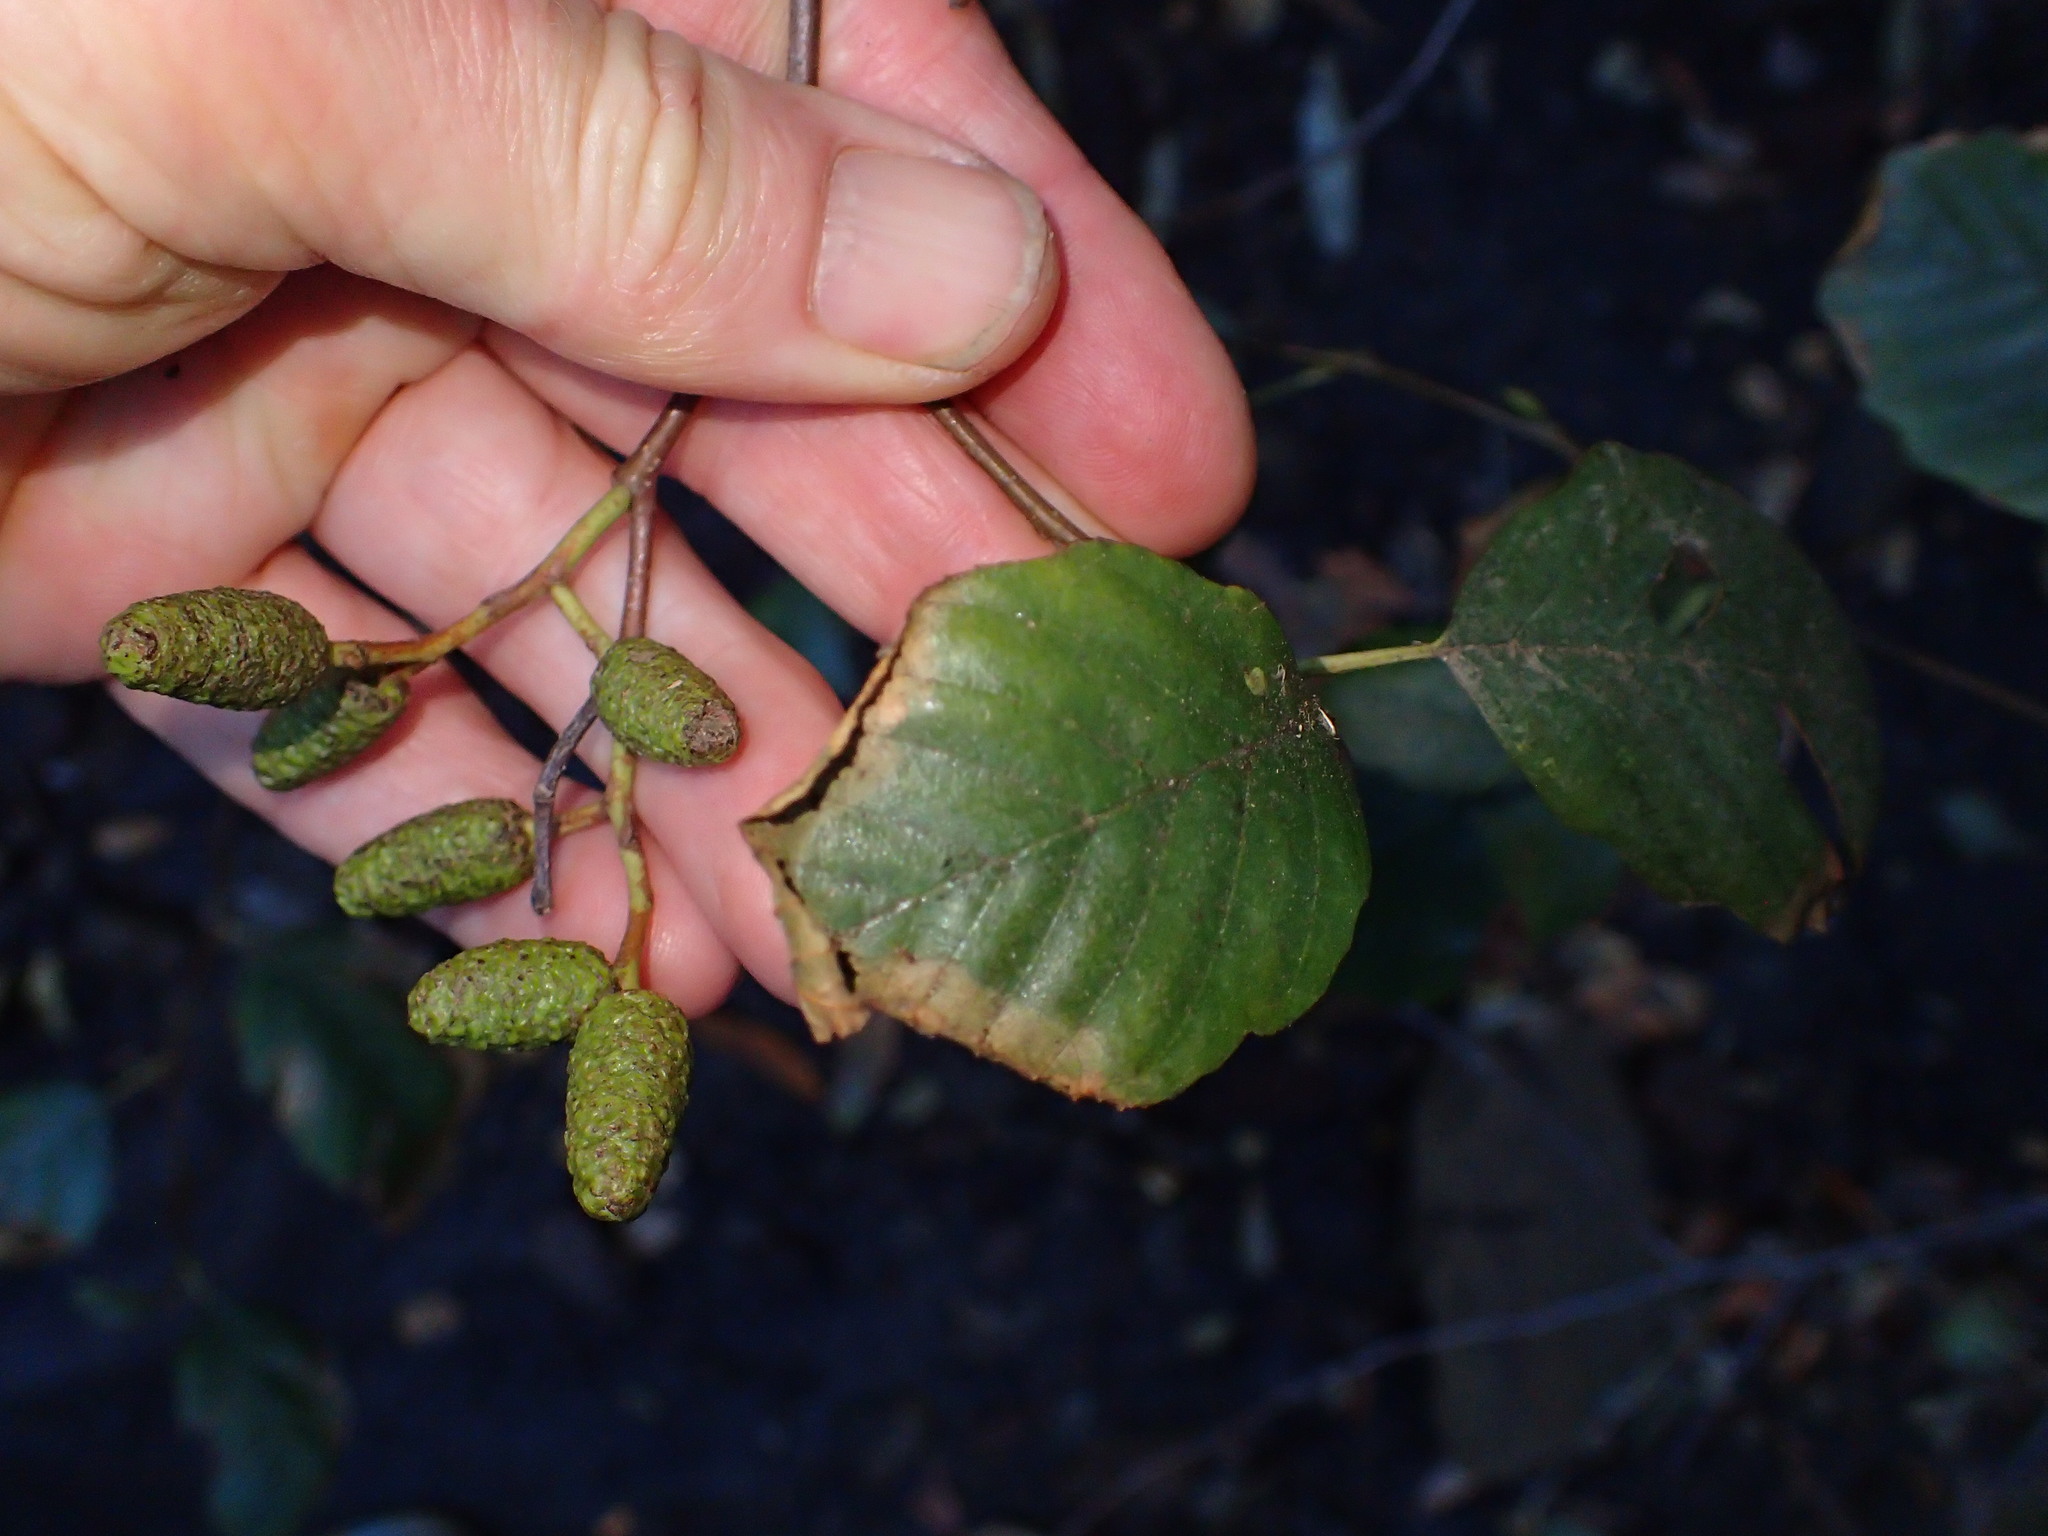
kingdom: Plantae
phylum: Tracheophyta
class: Magnoliopsida
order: Fagales
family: Betulaceae
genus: Alnus
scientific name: Alnus rhombifolia
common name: California alder
